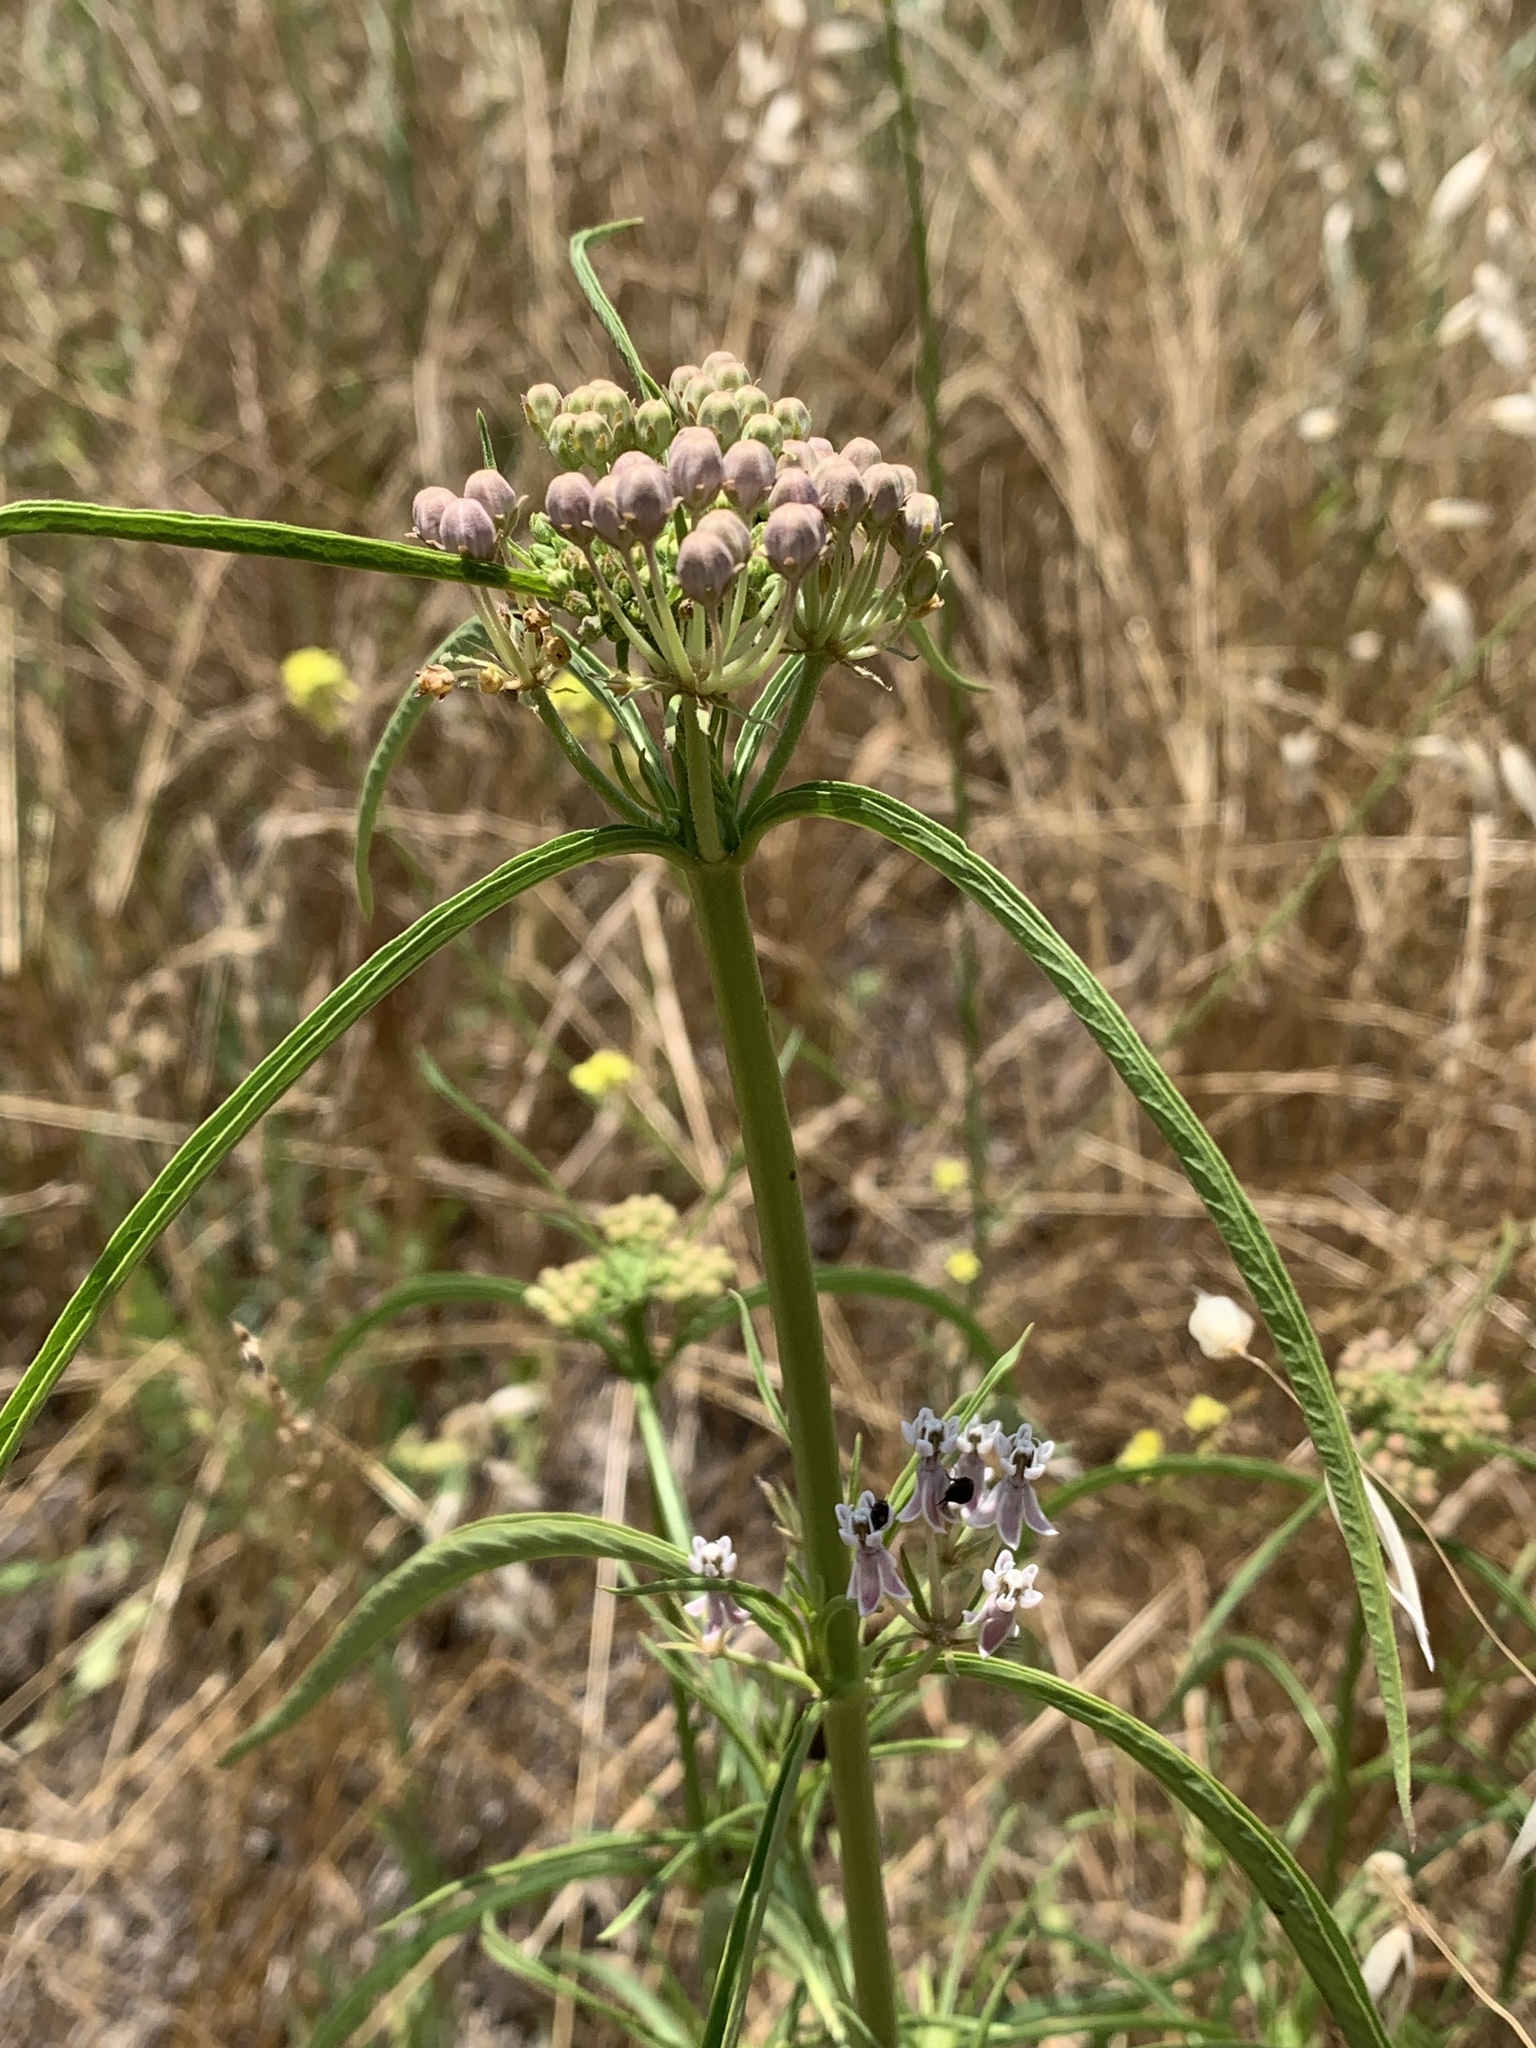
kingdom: Plantae
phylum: Tracheophyta
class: Magnoliopsida
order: Gentianales
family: Apocynaceae
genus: Asclepias
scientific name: Asclepias fascicularis
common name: Mexican milkweed
